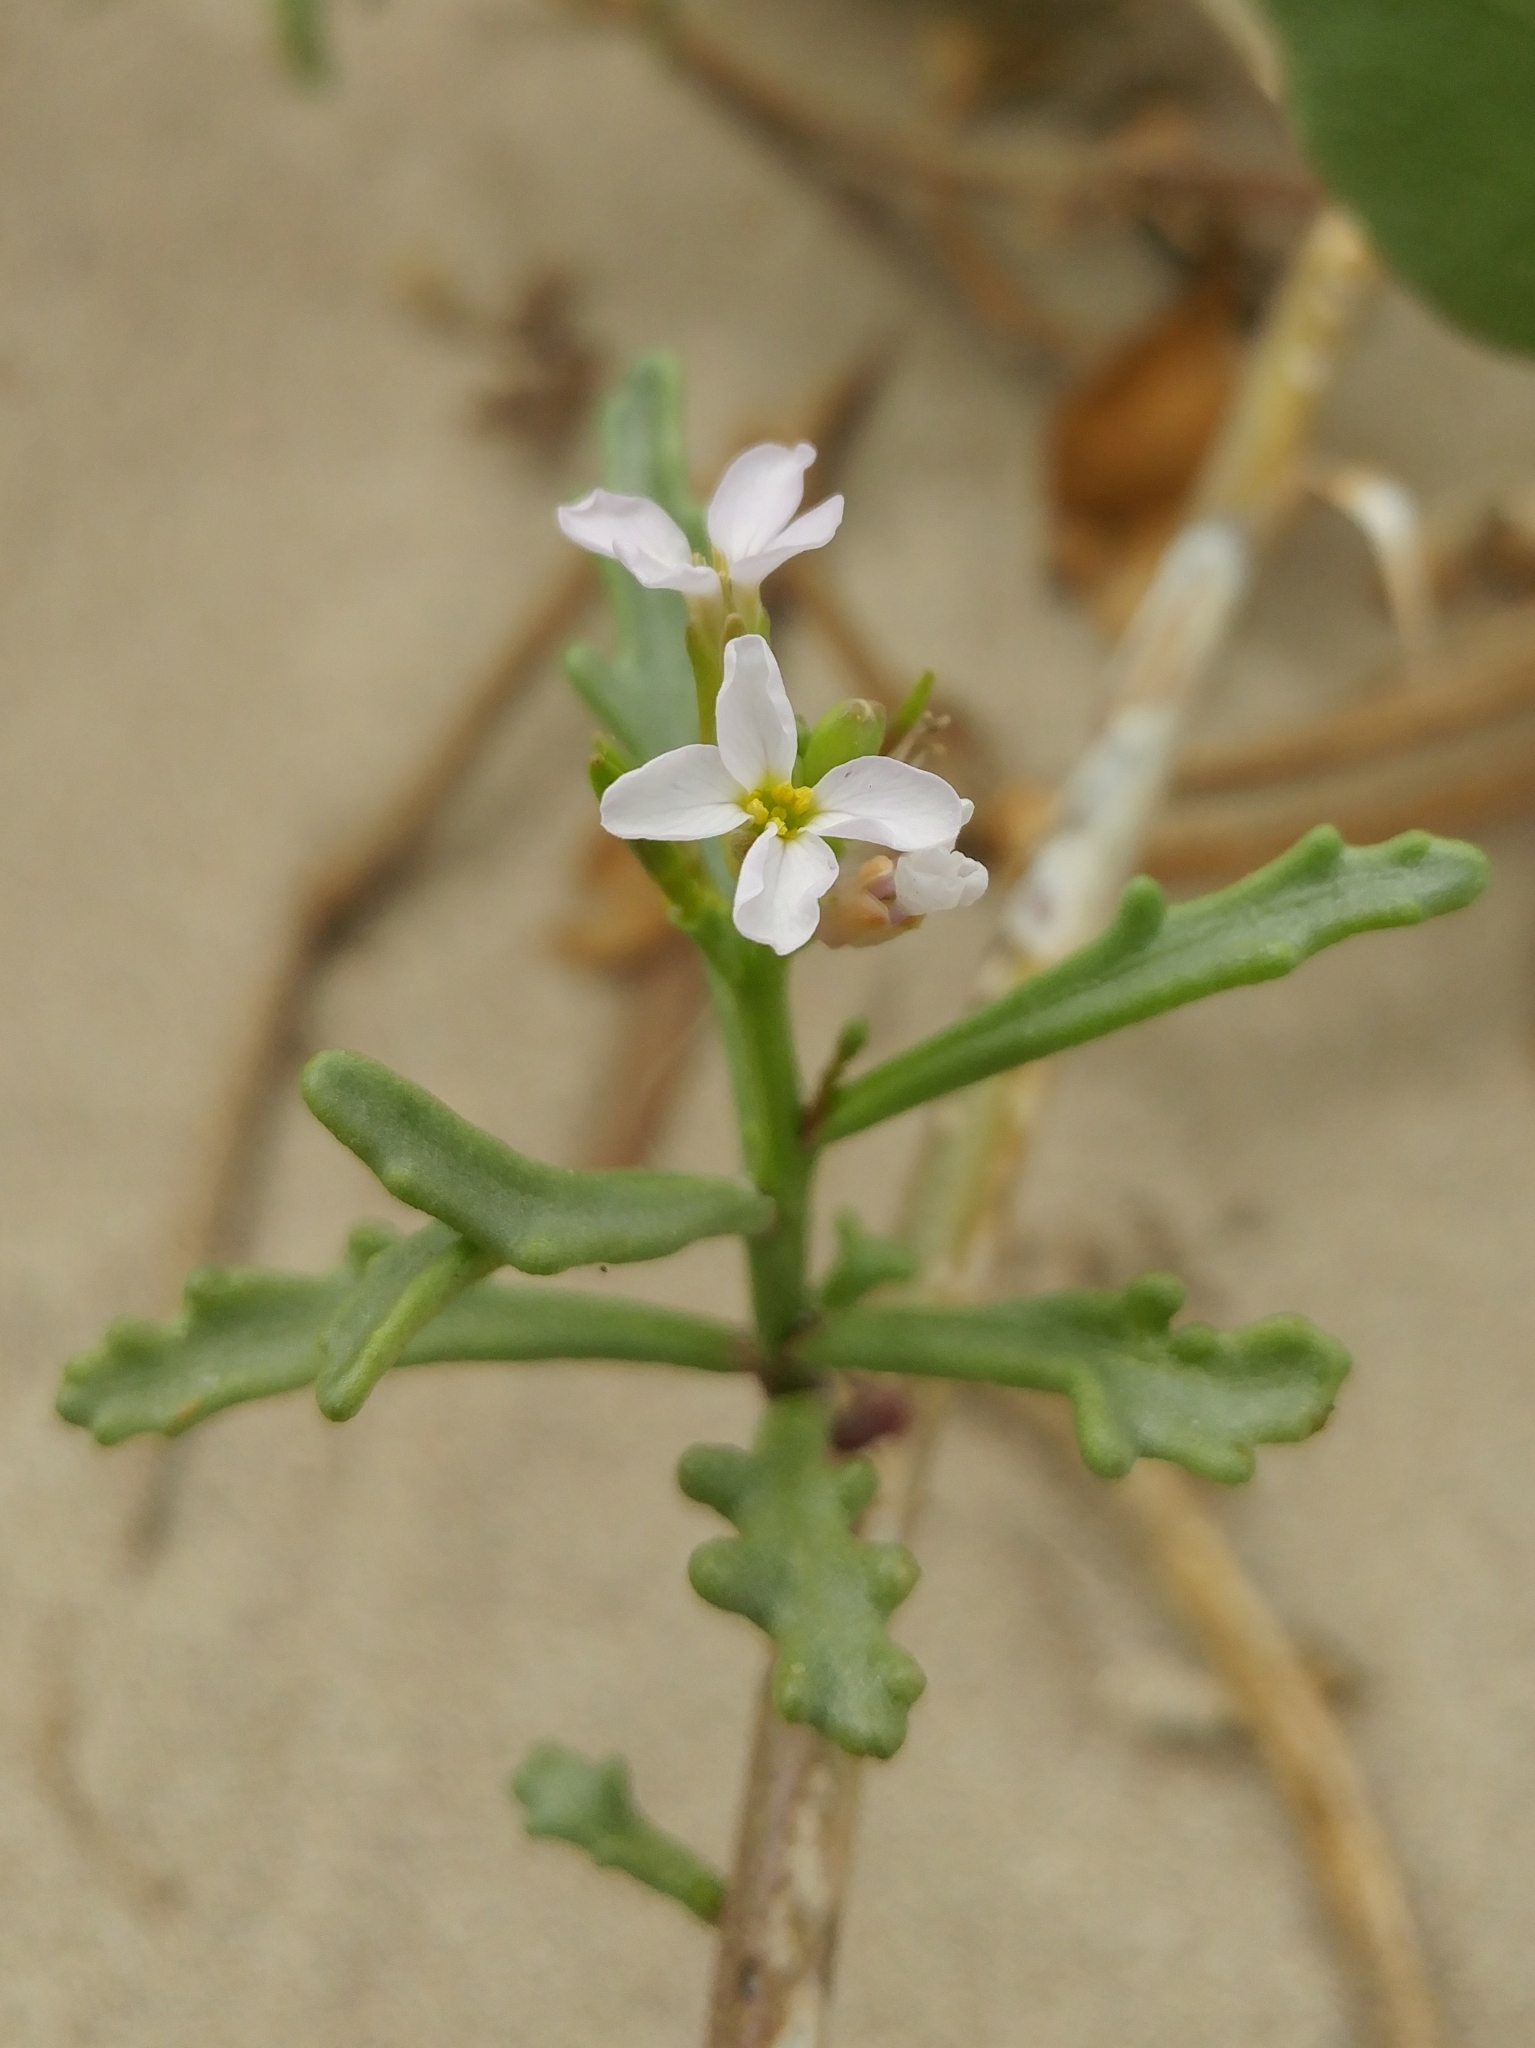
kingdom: Plantae
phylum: Tracheophyta
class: Magnoliopsida
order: Brassicales
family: Brassicaceae
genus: Cakile
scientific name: Cakile maritima
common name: Sea rocket
